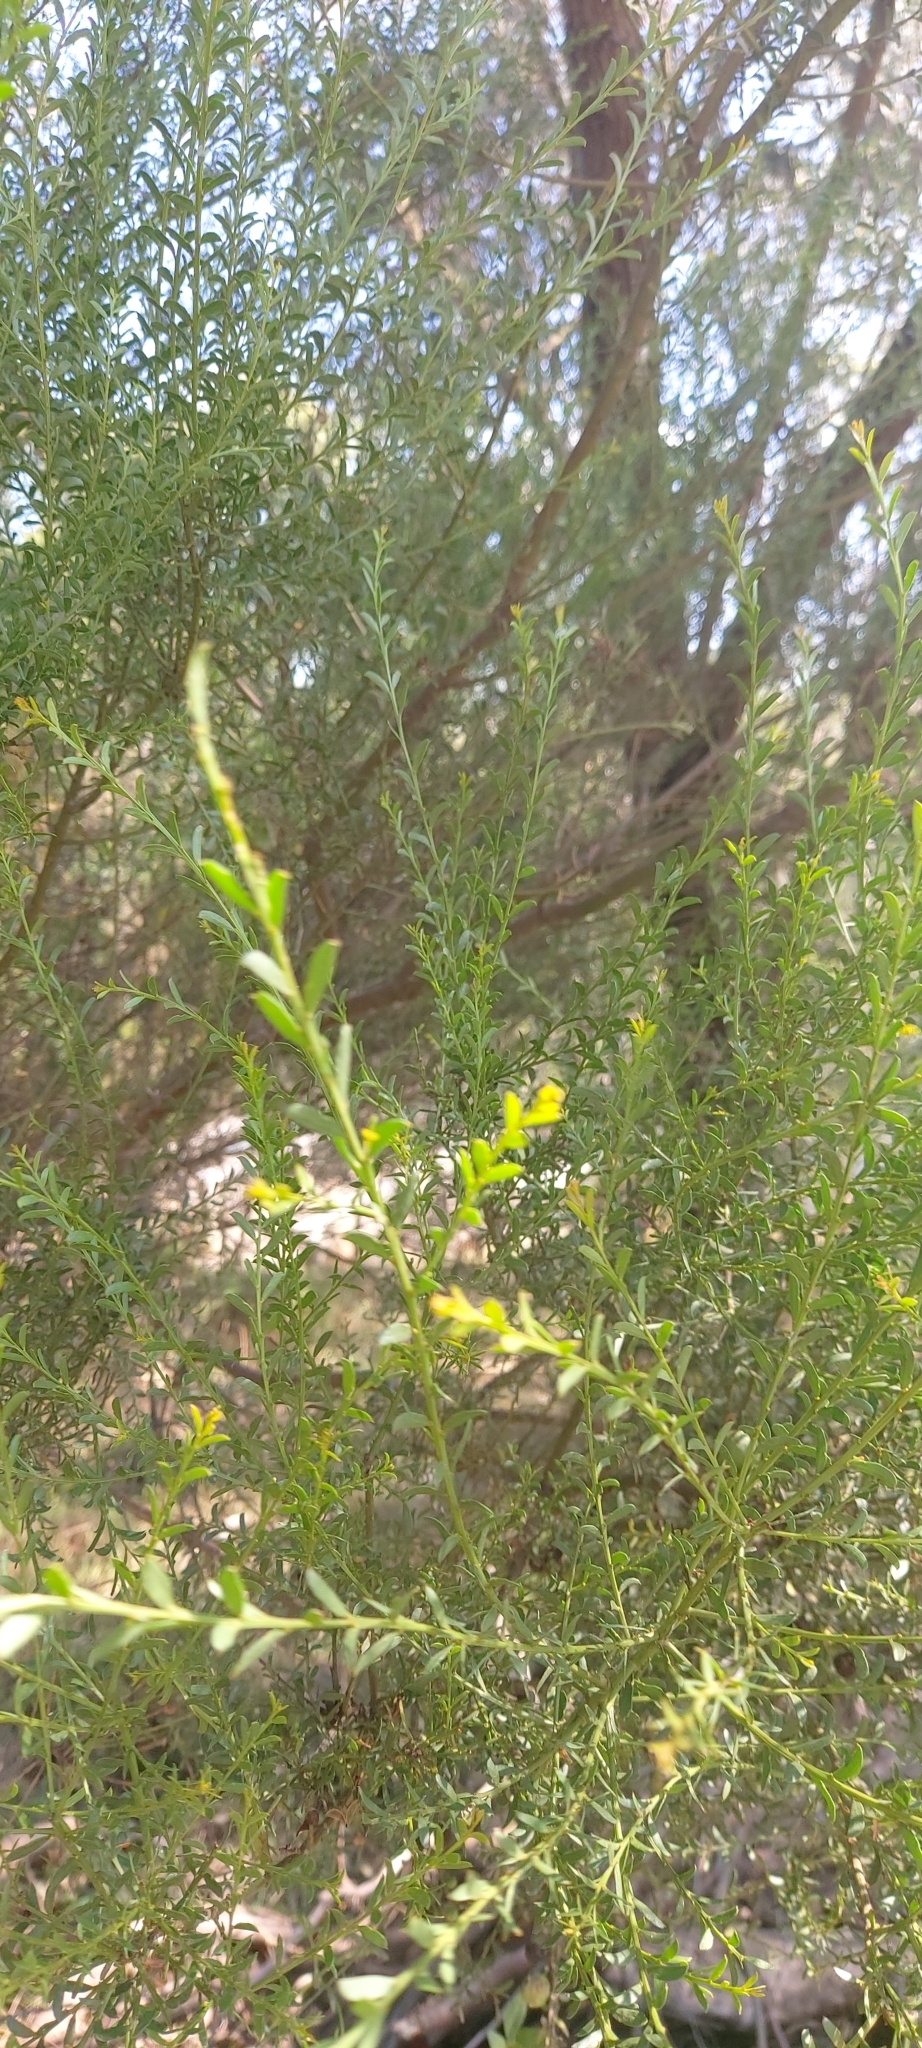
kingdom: Plantae
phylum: Tracheophyta
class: Magnoliopsida
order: Fabales
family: Fabaceae
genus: Acacia
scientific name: Acacia acinacea
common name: Gold-dust acacia
